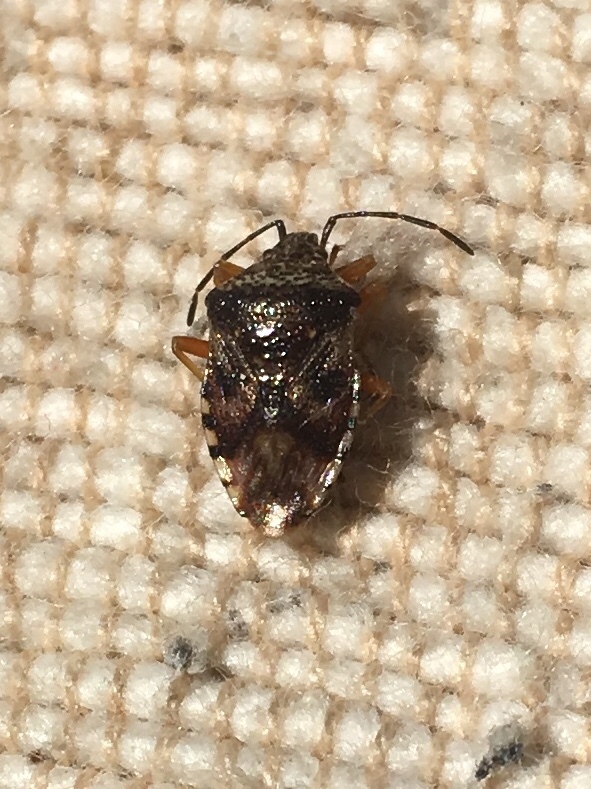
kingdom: Animalia
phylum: Arthropoda
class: Insecta
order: Hemiptera
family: Acanthosomatidae
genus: Elasmucha
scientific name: Elasmucha lateralis
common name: Shield bug
